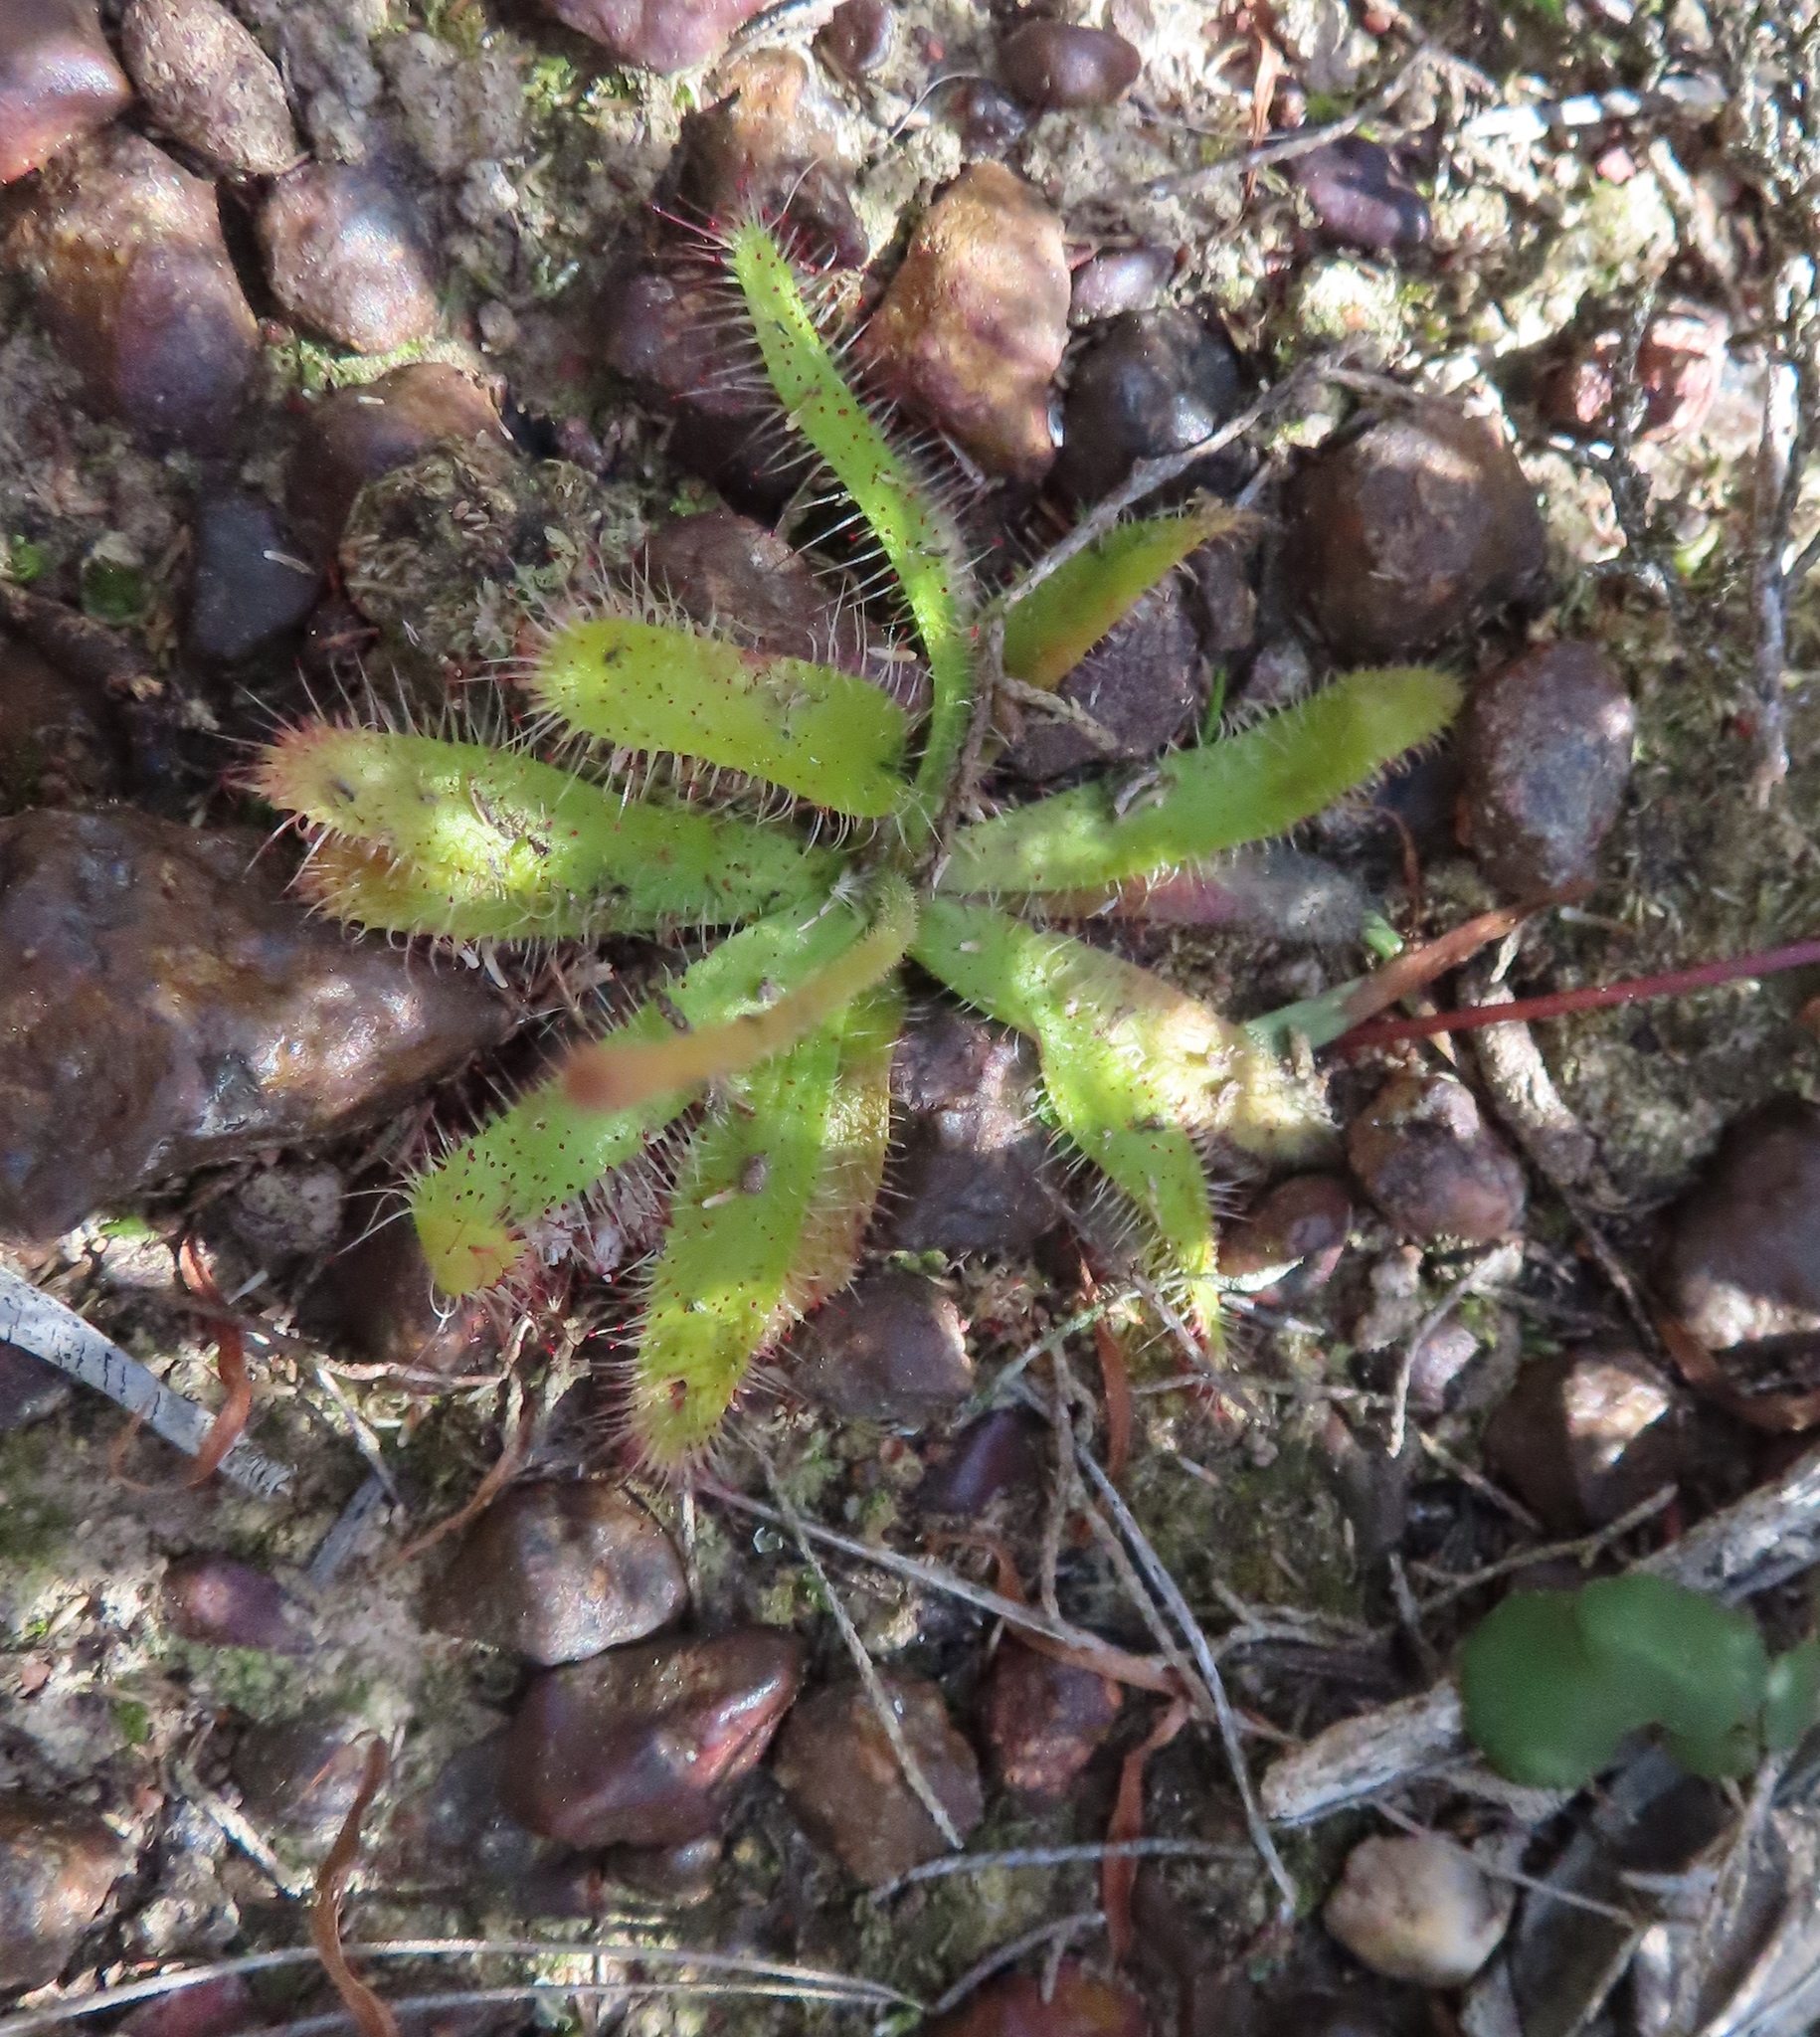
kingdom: Plantae
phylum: Tracheophyta
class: Magnoliopsida
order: Caryophyllales
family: Droseraceae
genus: Drosera
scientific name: Drosera cistiflora
